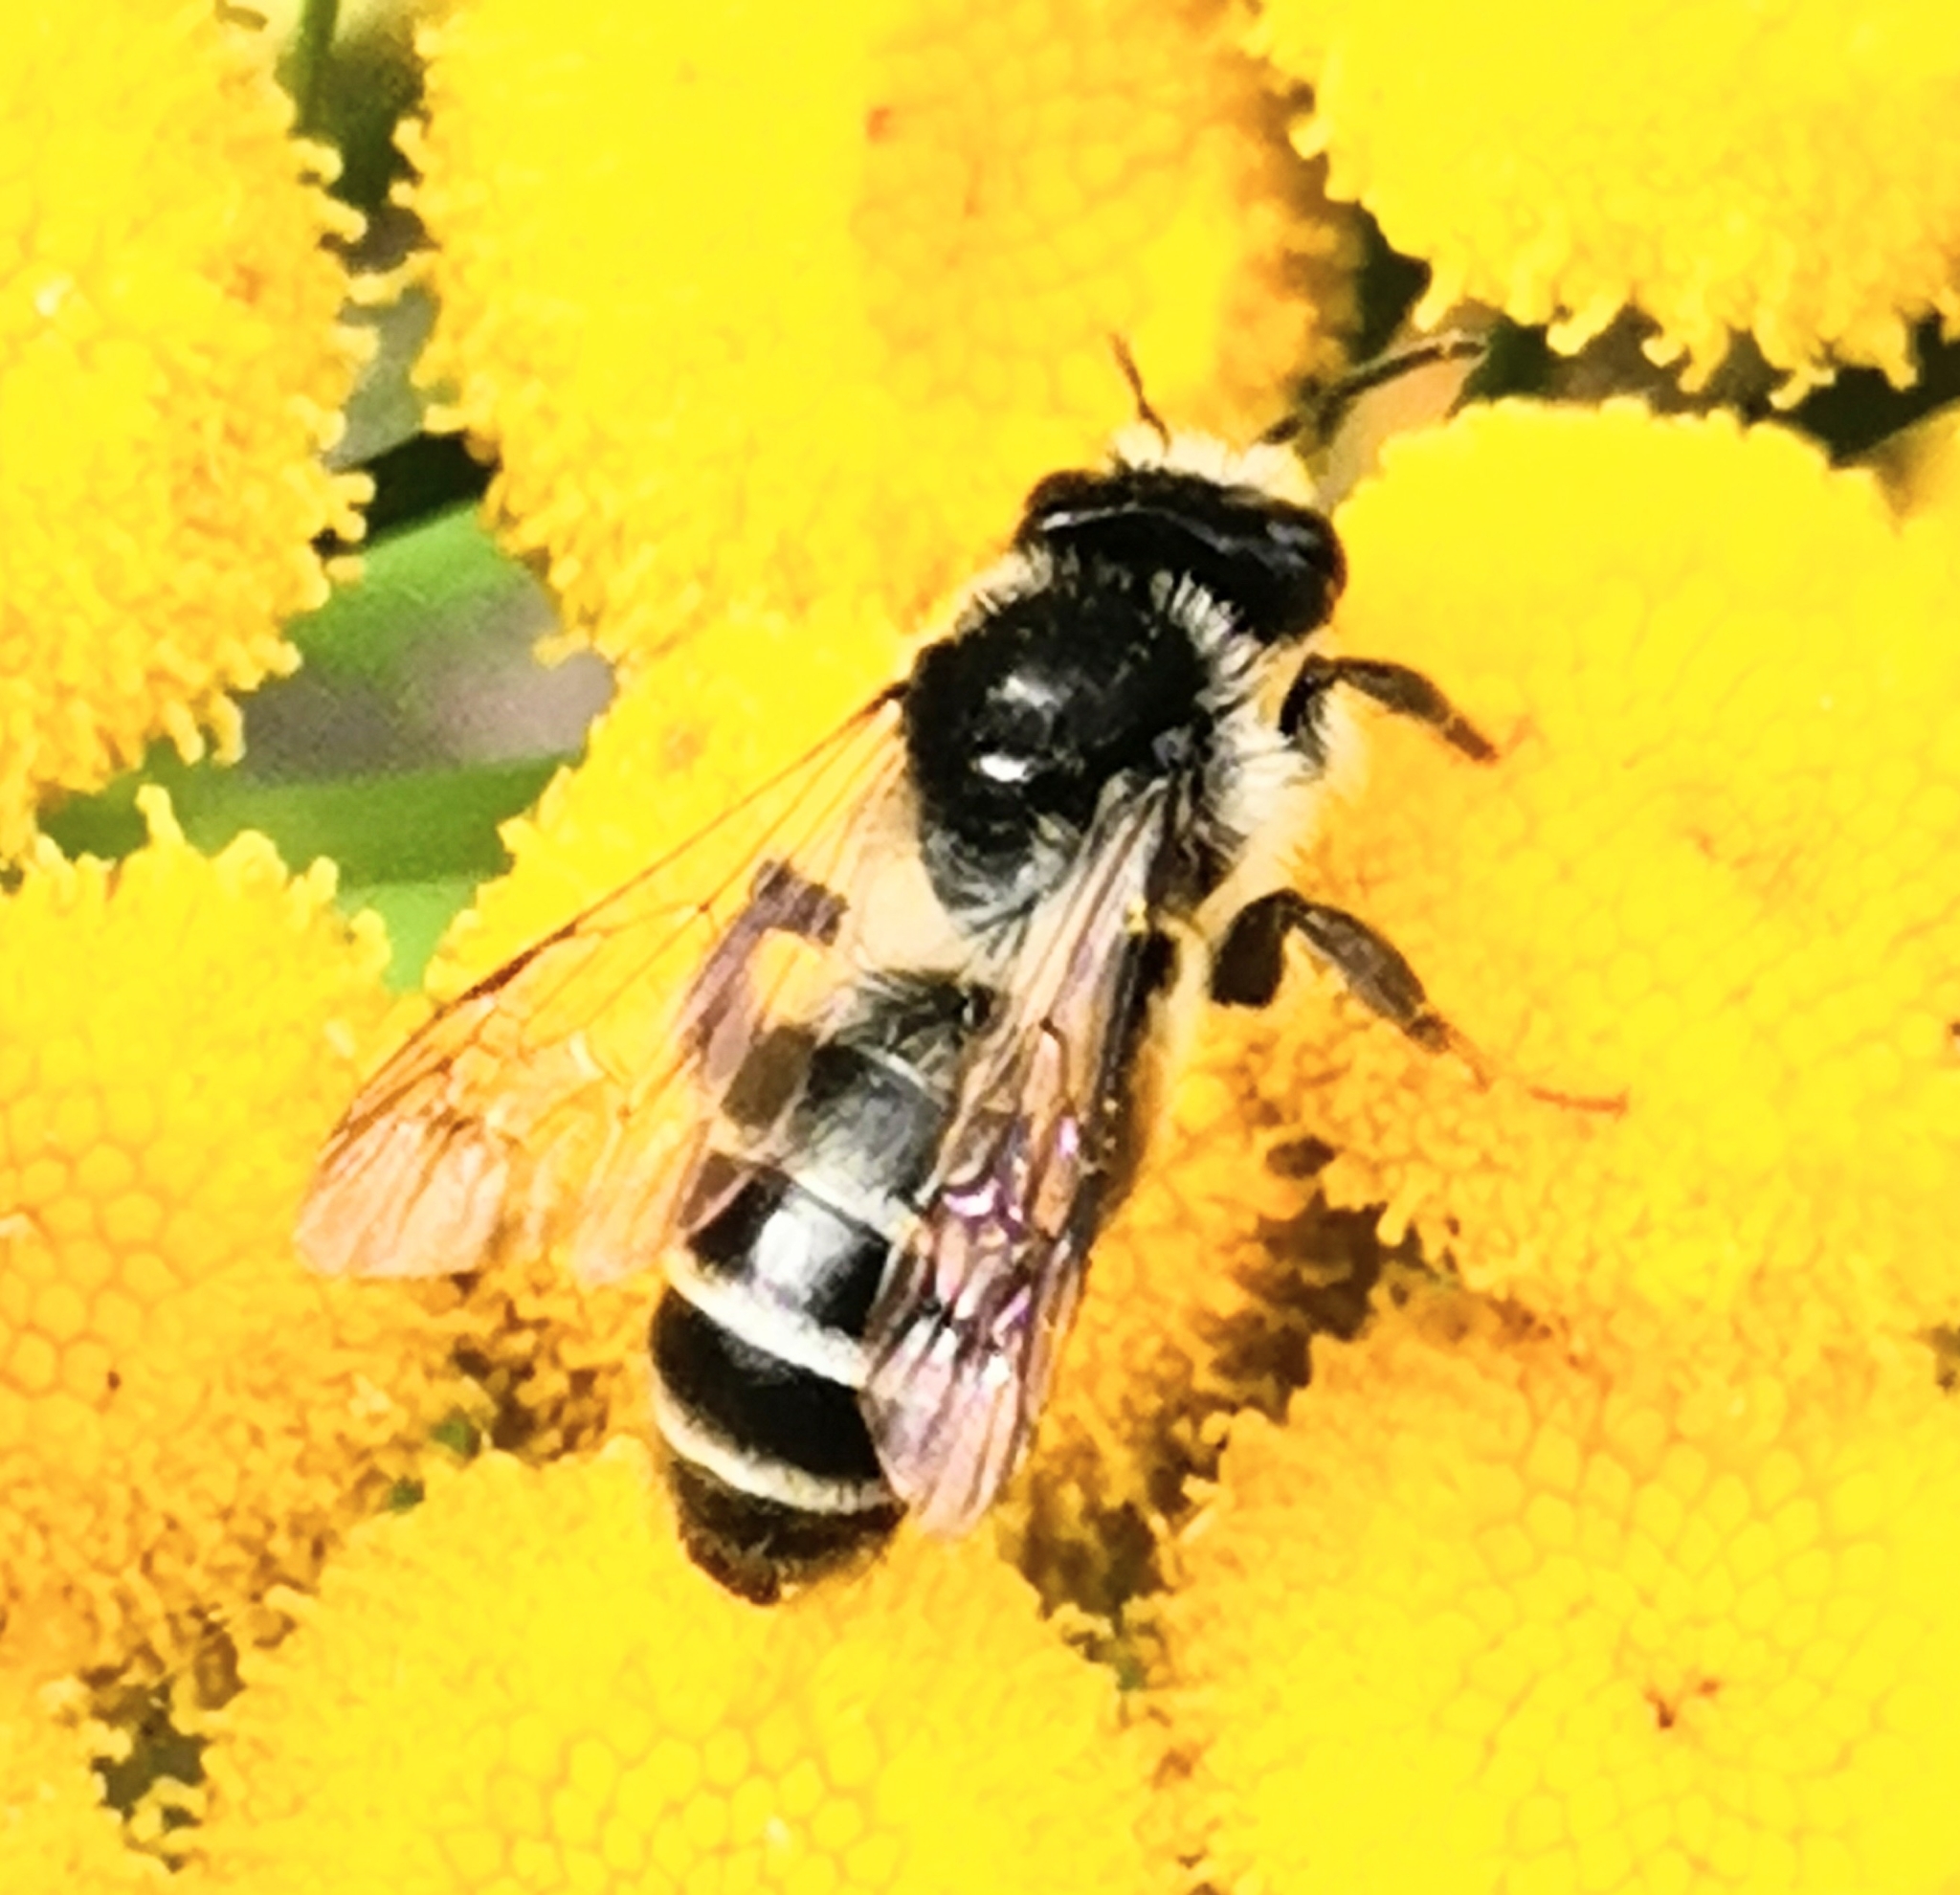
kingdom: Animalia
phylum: Arthropoda
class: Insecta
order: Hymenoptera
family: Andrenidae
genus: Andrena
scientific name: Andrena denticulata
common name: Grey-banded mining bee
